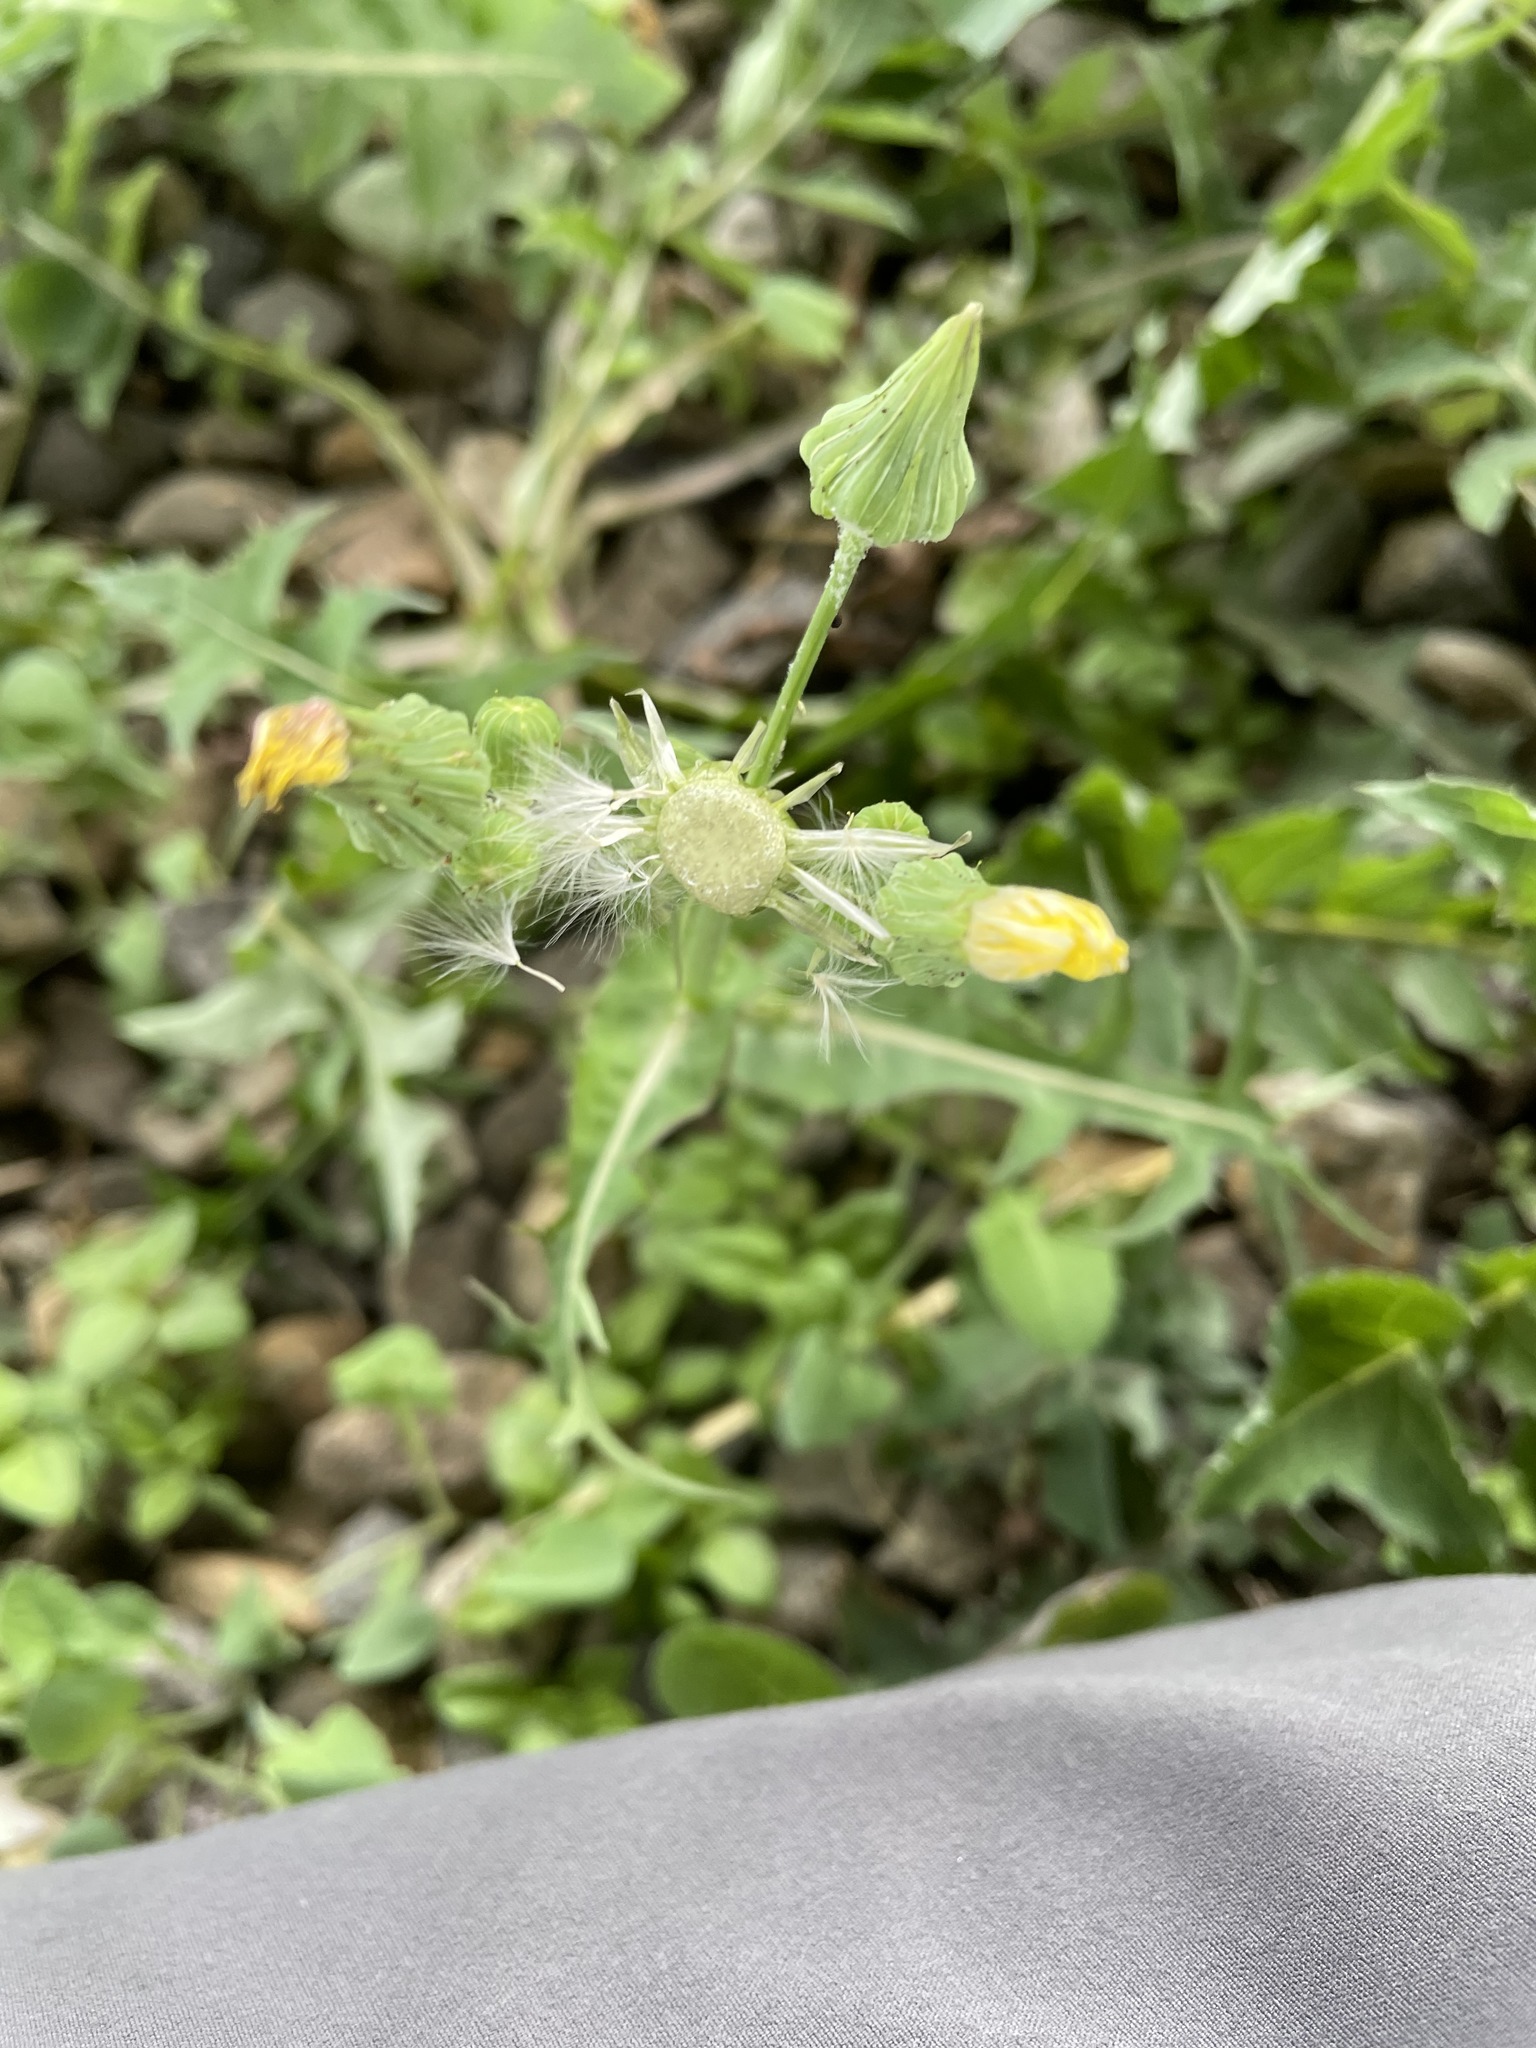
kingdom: Plantae
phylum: Tracheophyta
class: Magnoliopsida
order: Asterales
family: Asteraceae
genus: Sonchus
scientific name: Sonchus oleraceus
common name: Common sowthistle
